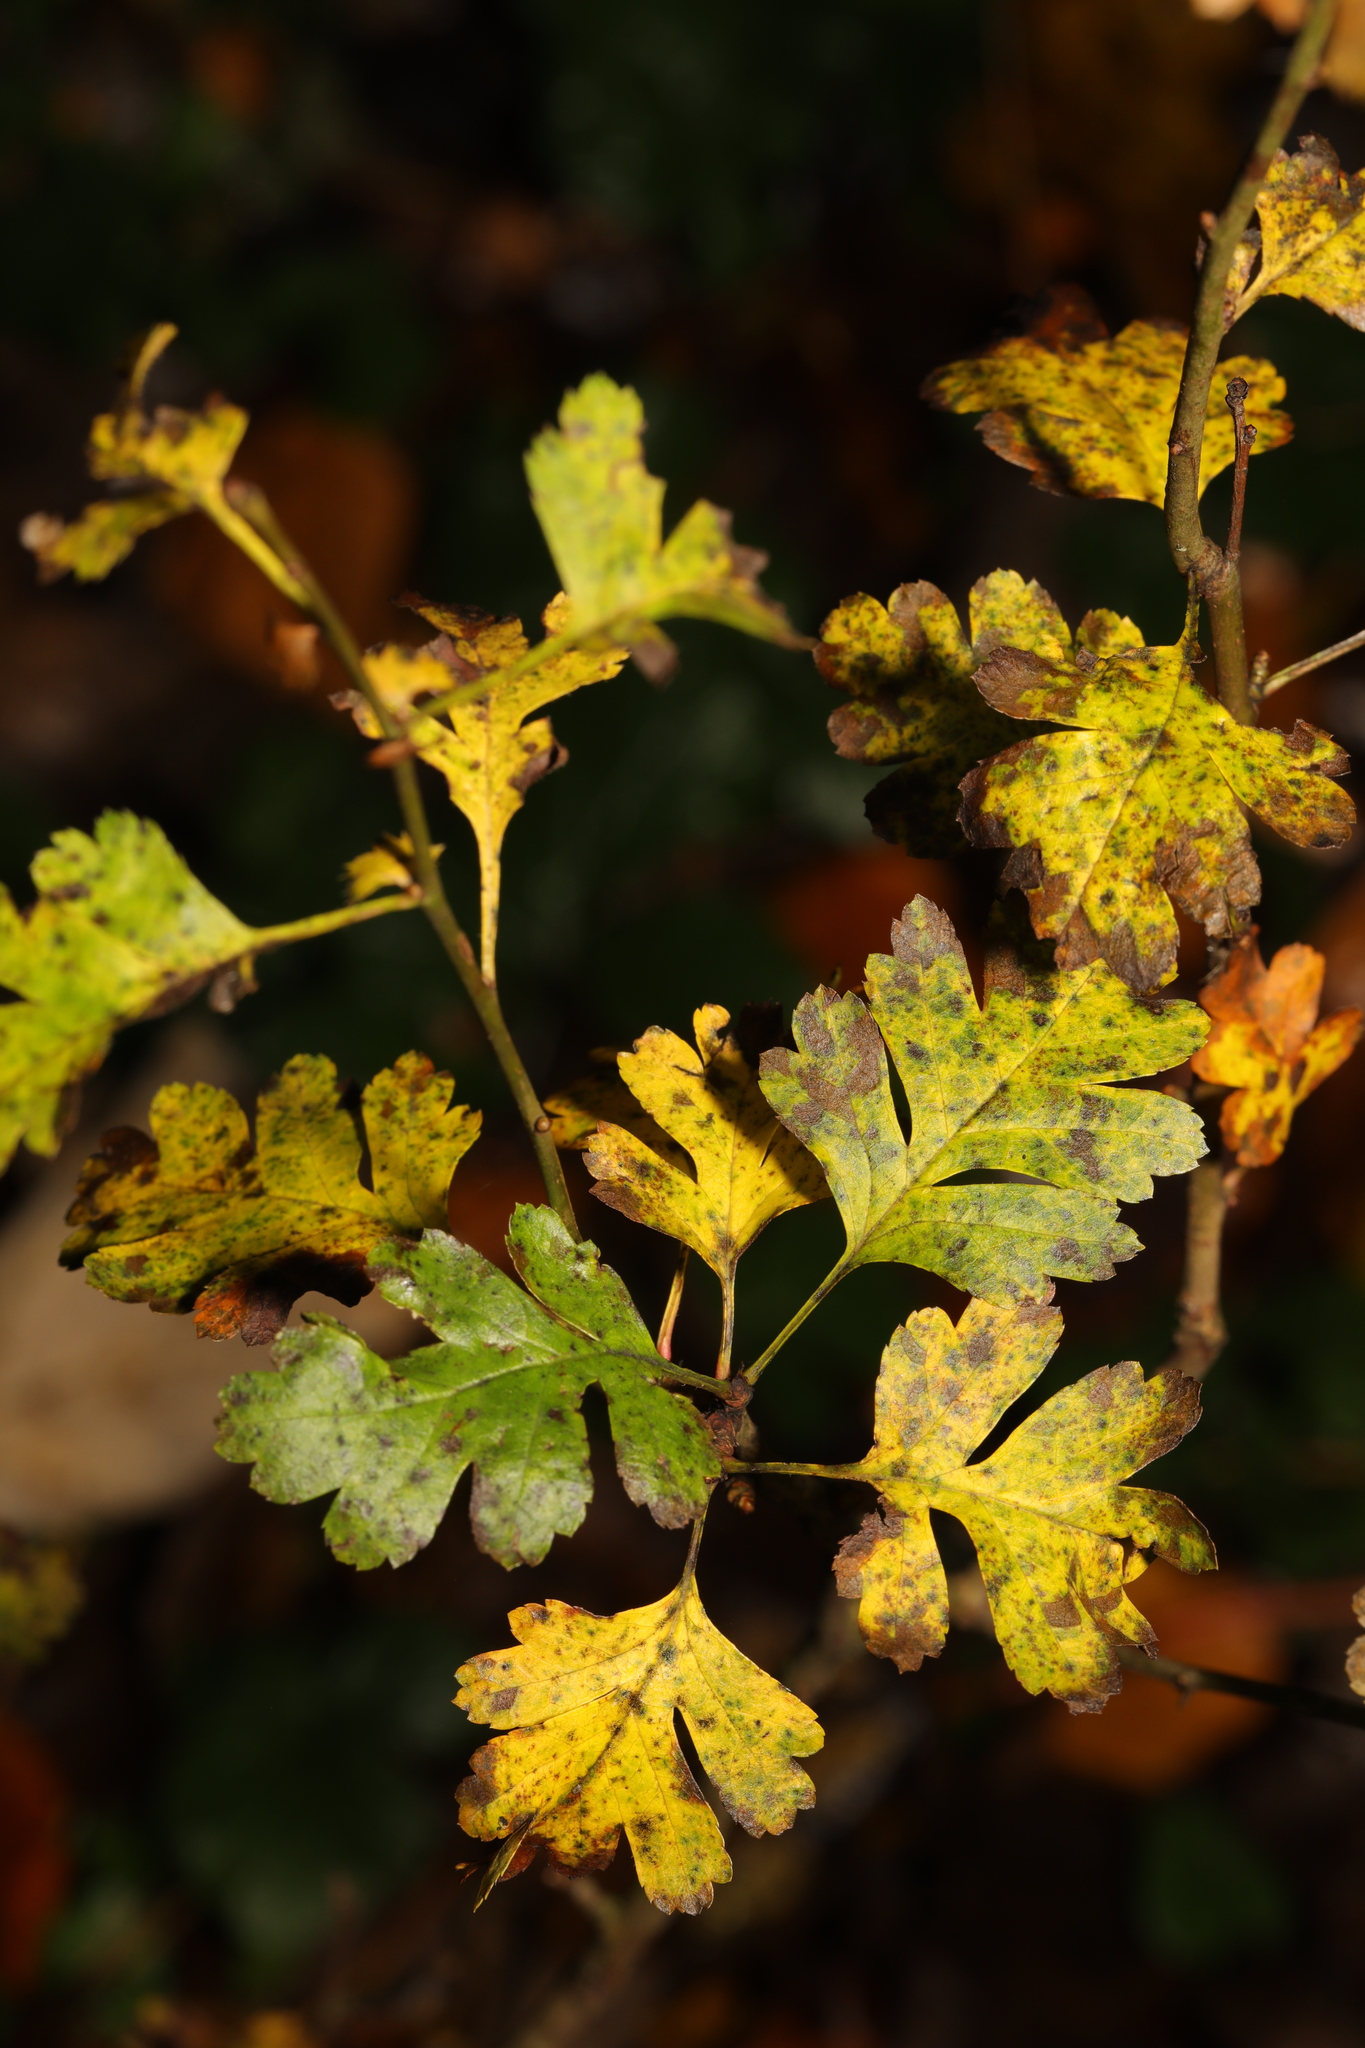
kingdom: Plantae
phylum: Tracheophyta
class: Magnoliopsida
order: Rosales
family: Rosaceae
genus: Crataegus
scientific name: Crataegus monogyna
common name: Hawthorn
